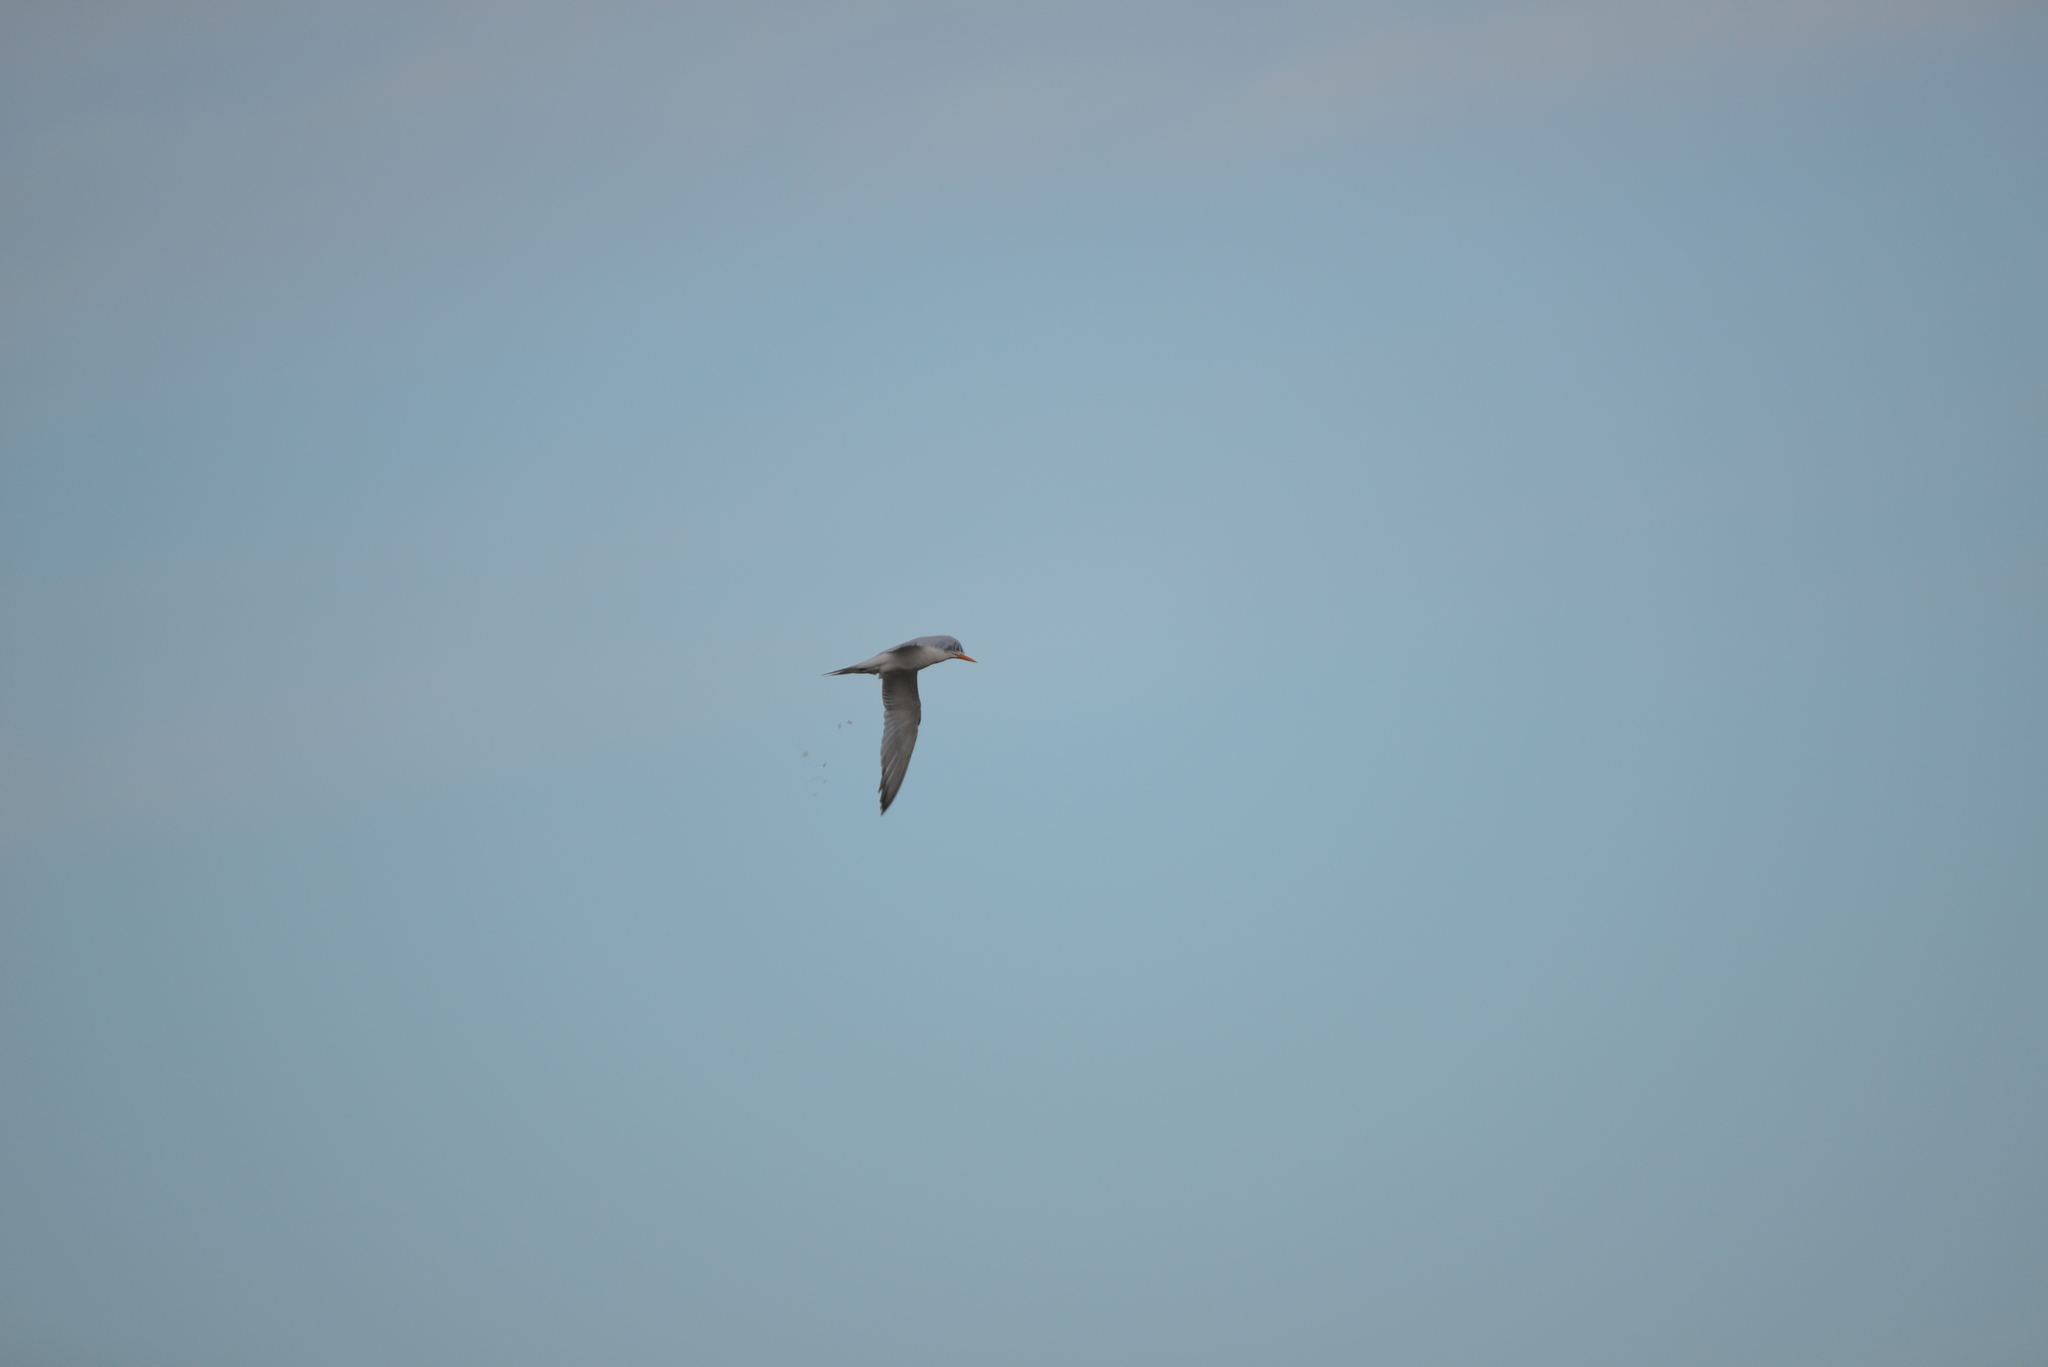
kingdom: Animalia
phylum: Chordata
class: Aves
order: Charadriiformes
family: Laridae
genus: Thalasseus
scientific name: Thalasseus maximus
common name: Royal tern
